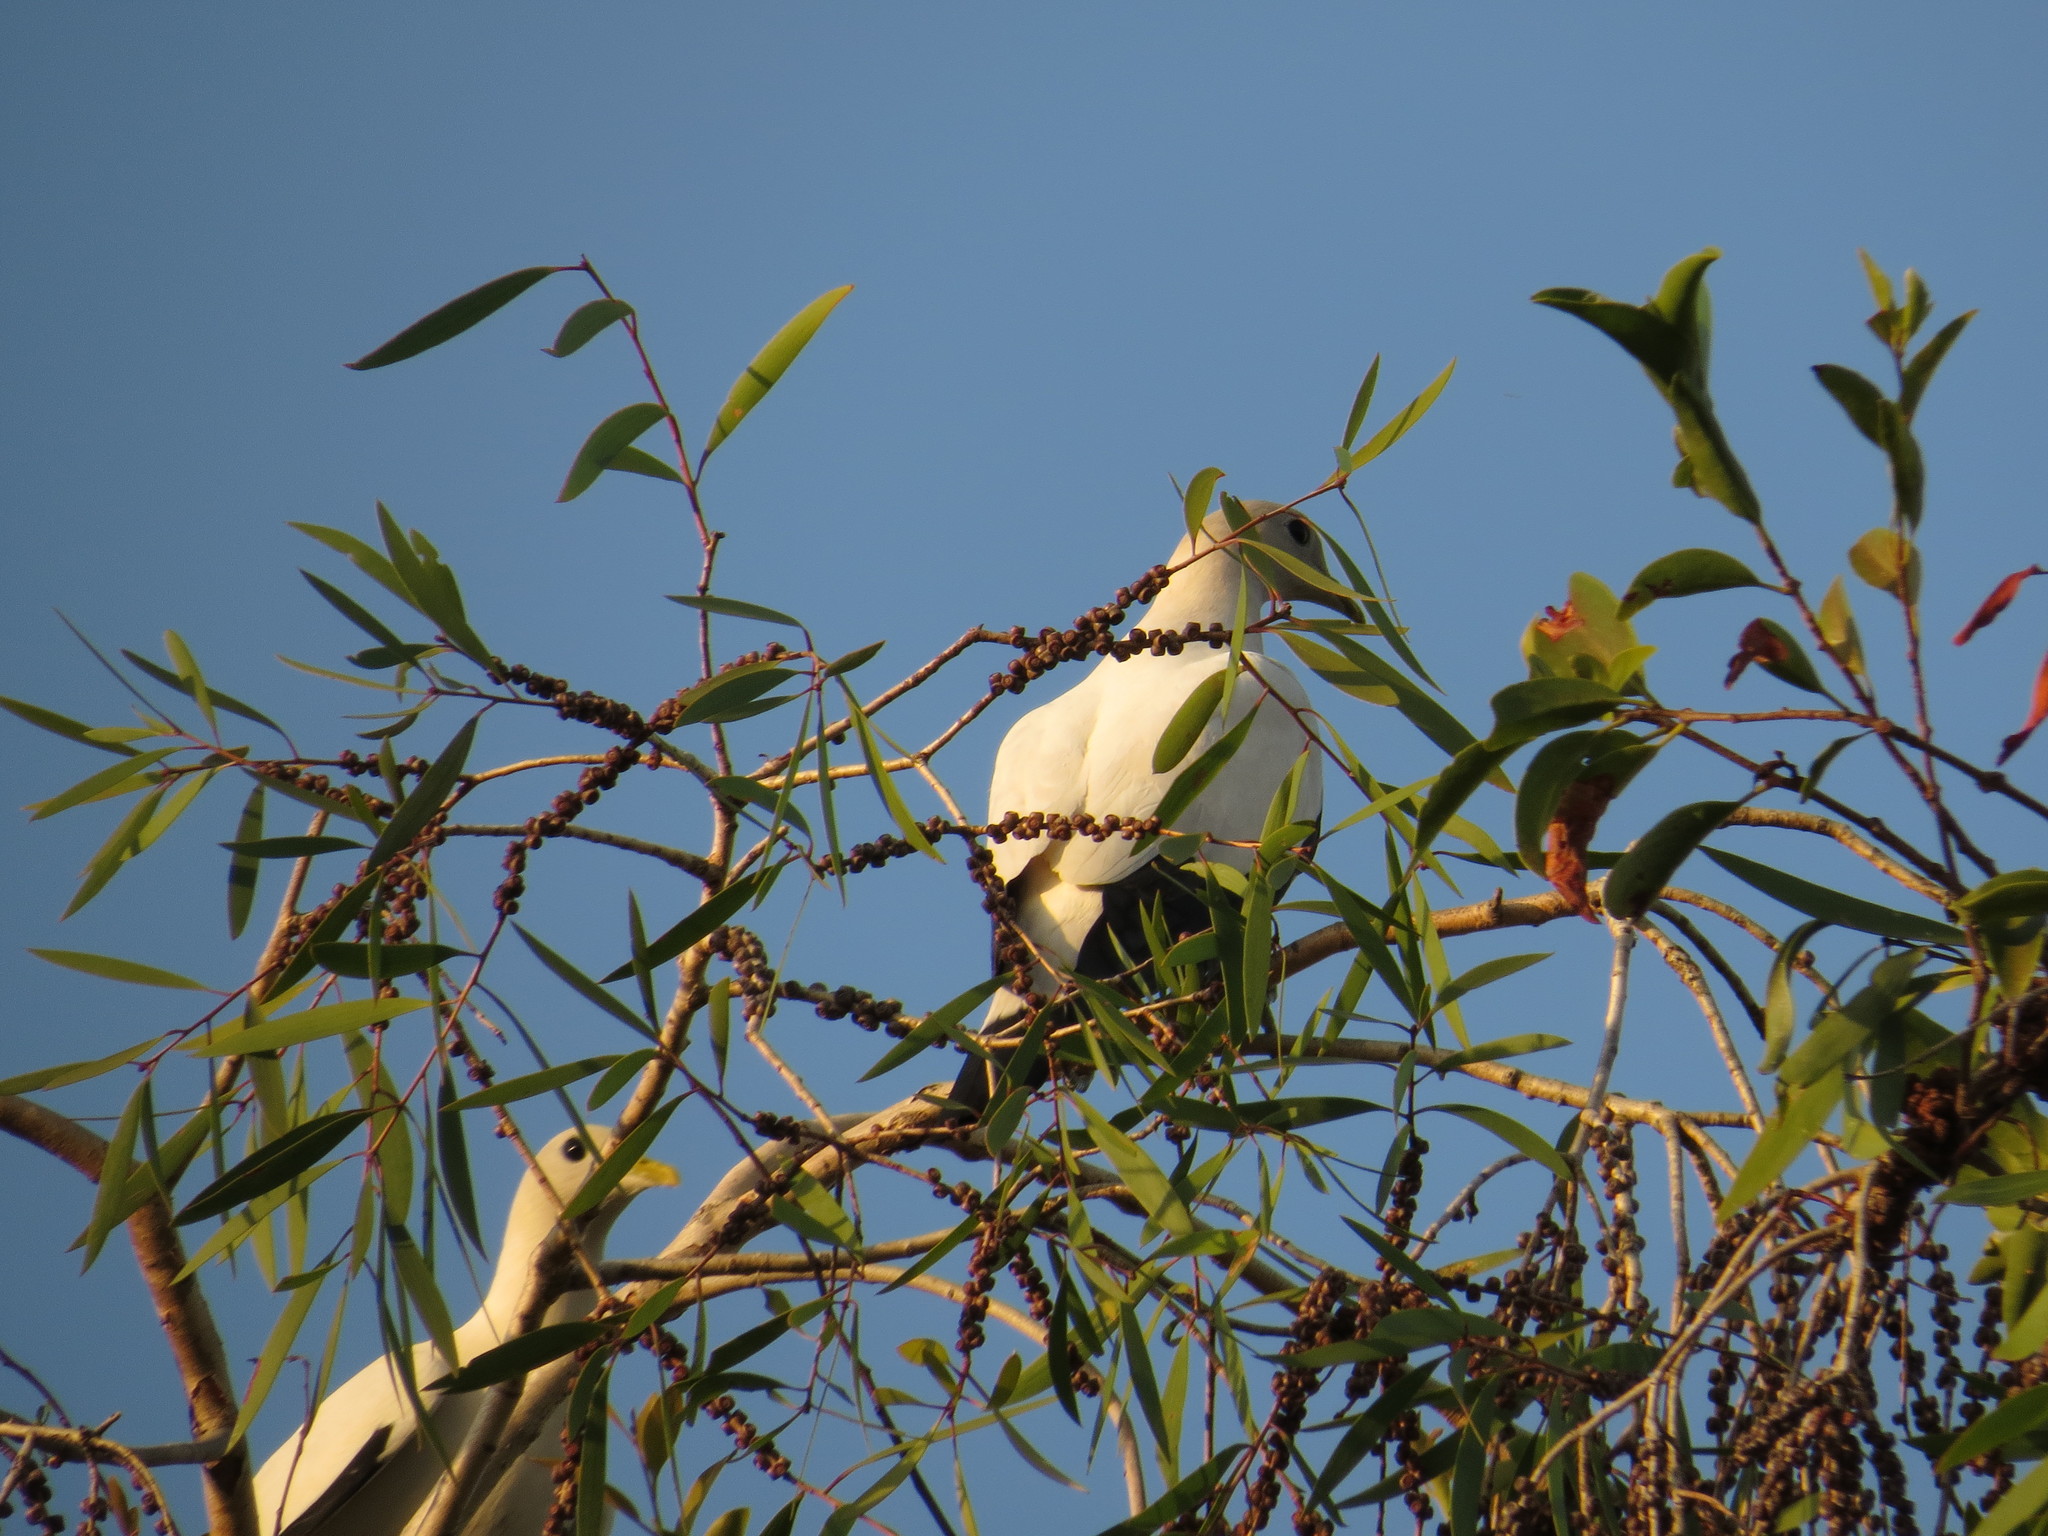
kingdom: Animalia
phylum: Chordata
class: Aves
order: Columbiformes
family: Columbidae
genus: Ducula
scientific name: Ducula spilorrhoa
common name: Torresian imperial pigeon
